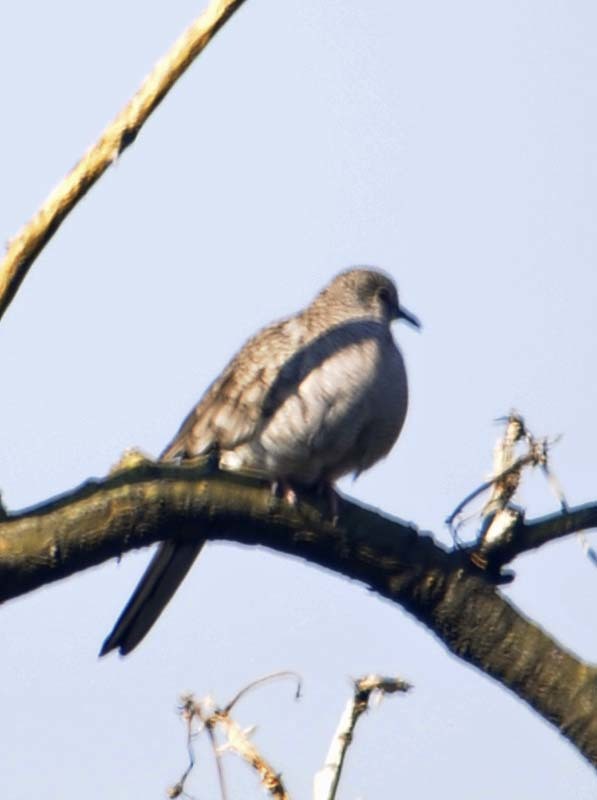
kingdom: Animalia
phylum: Chordata
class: Aves
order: Columbiformes
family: Columbidae
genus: Columbina
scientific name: Columbina inca
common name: Inca dove
